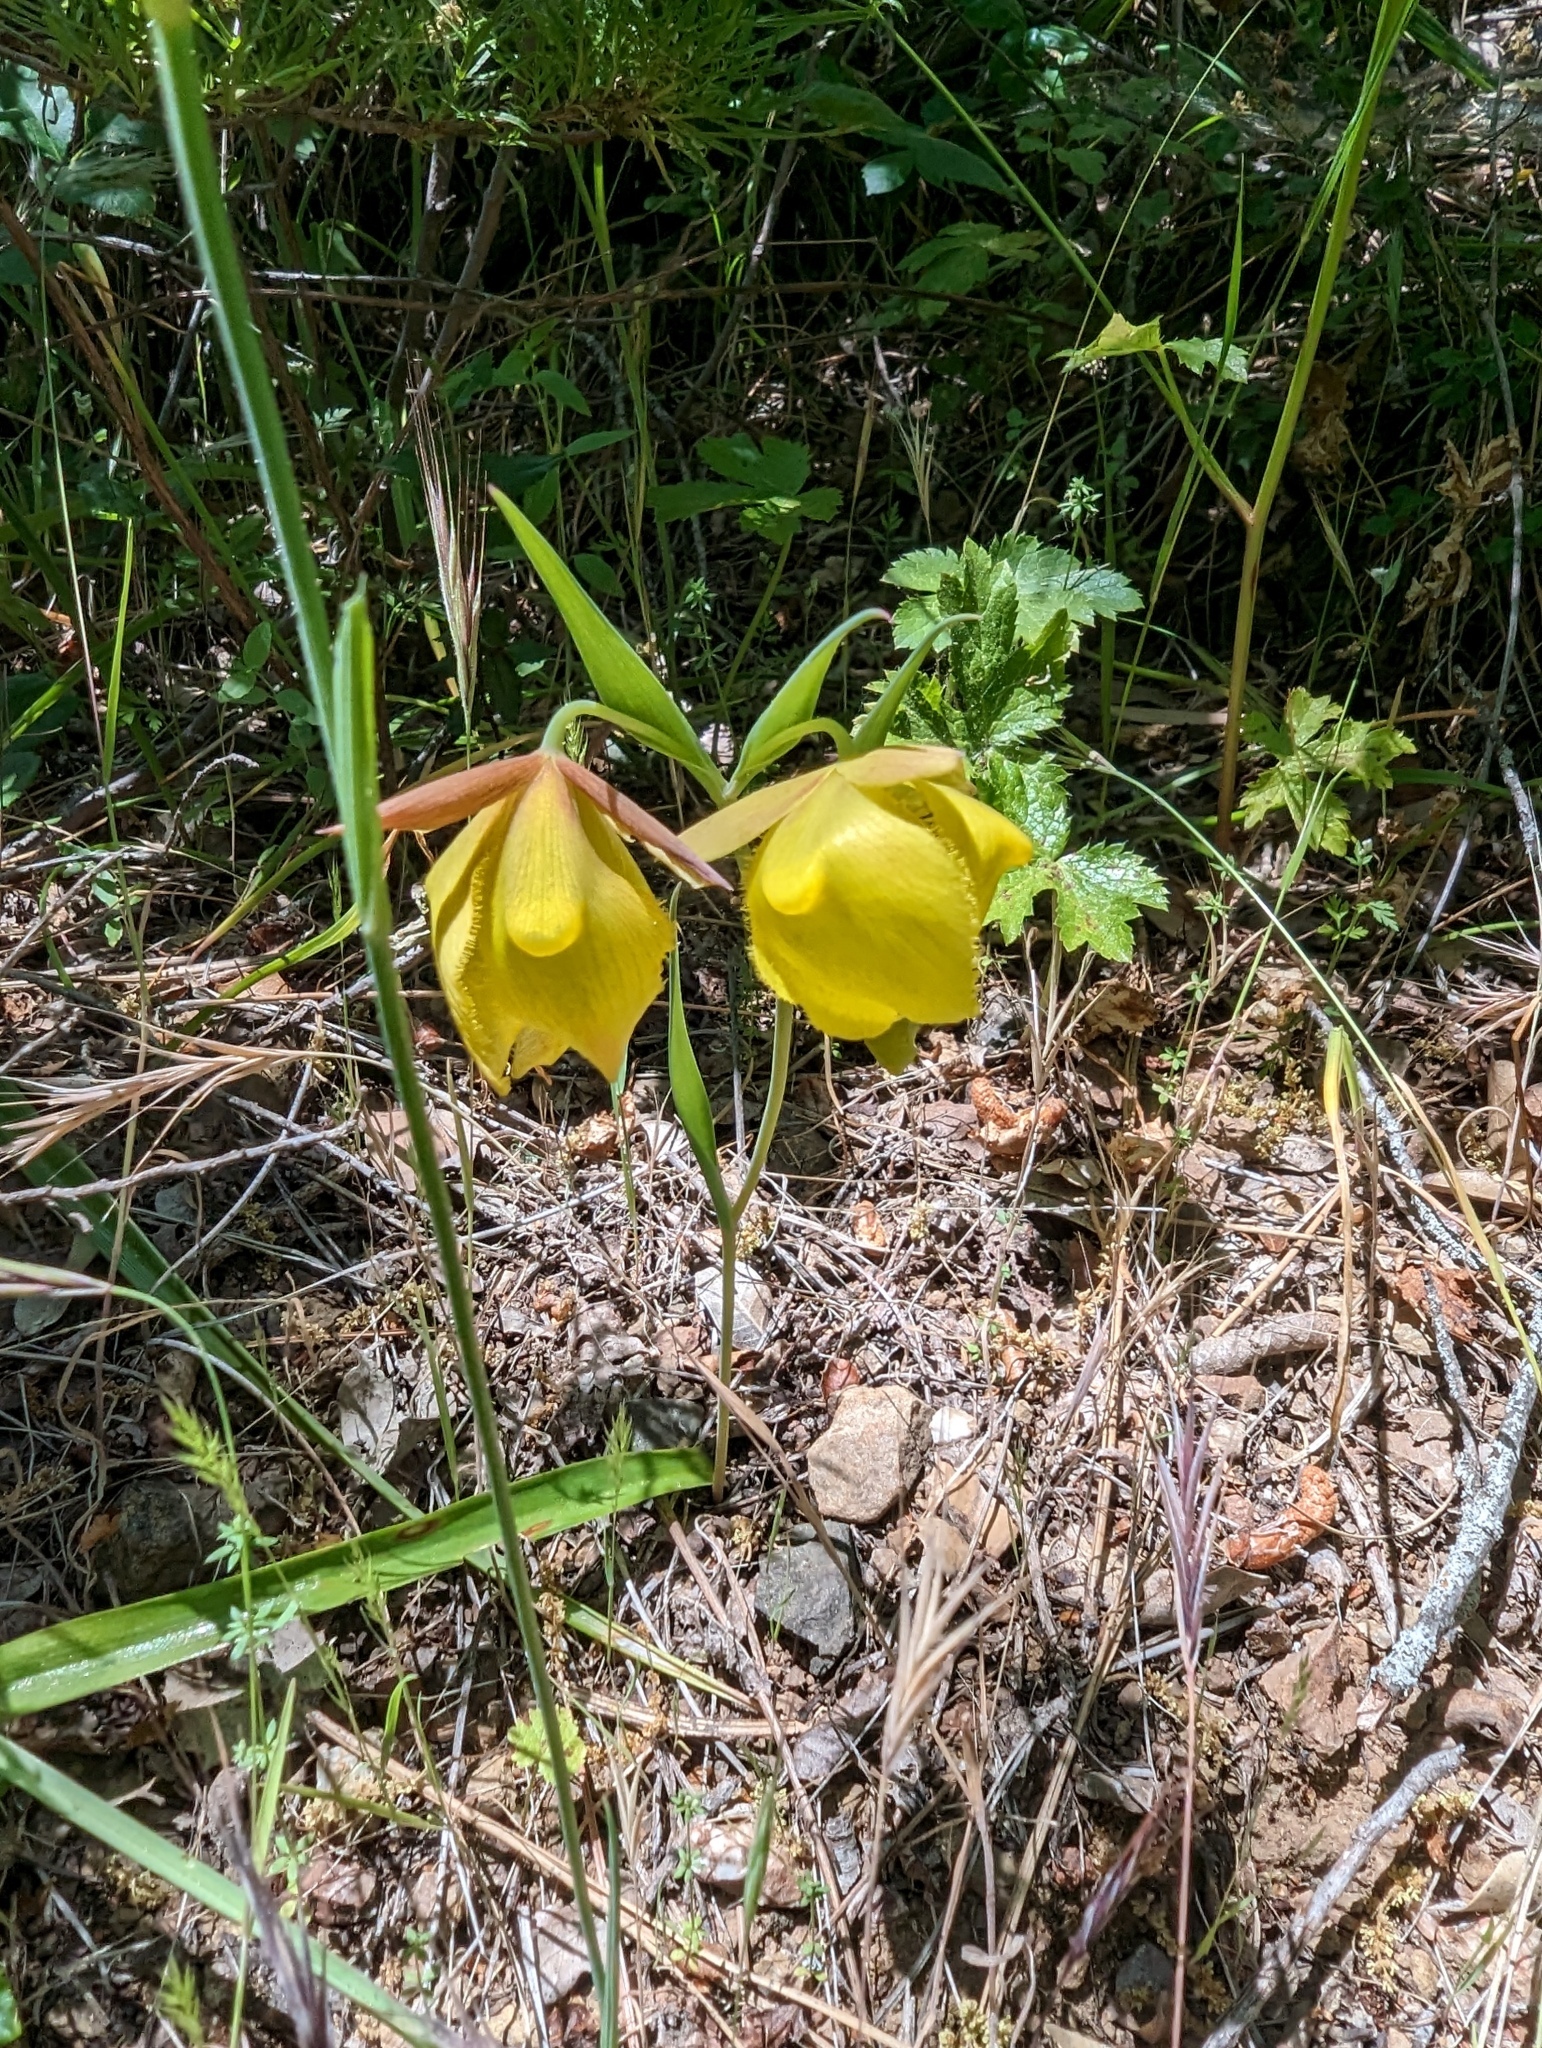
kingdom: Plantae
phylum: Tracheophyta
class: Liliopsida
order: Liliales
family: Liliaceae
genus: Calochortus
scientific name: Calochortus pulchellus
